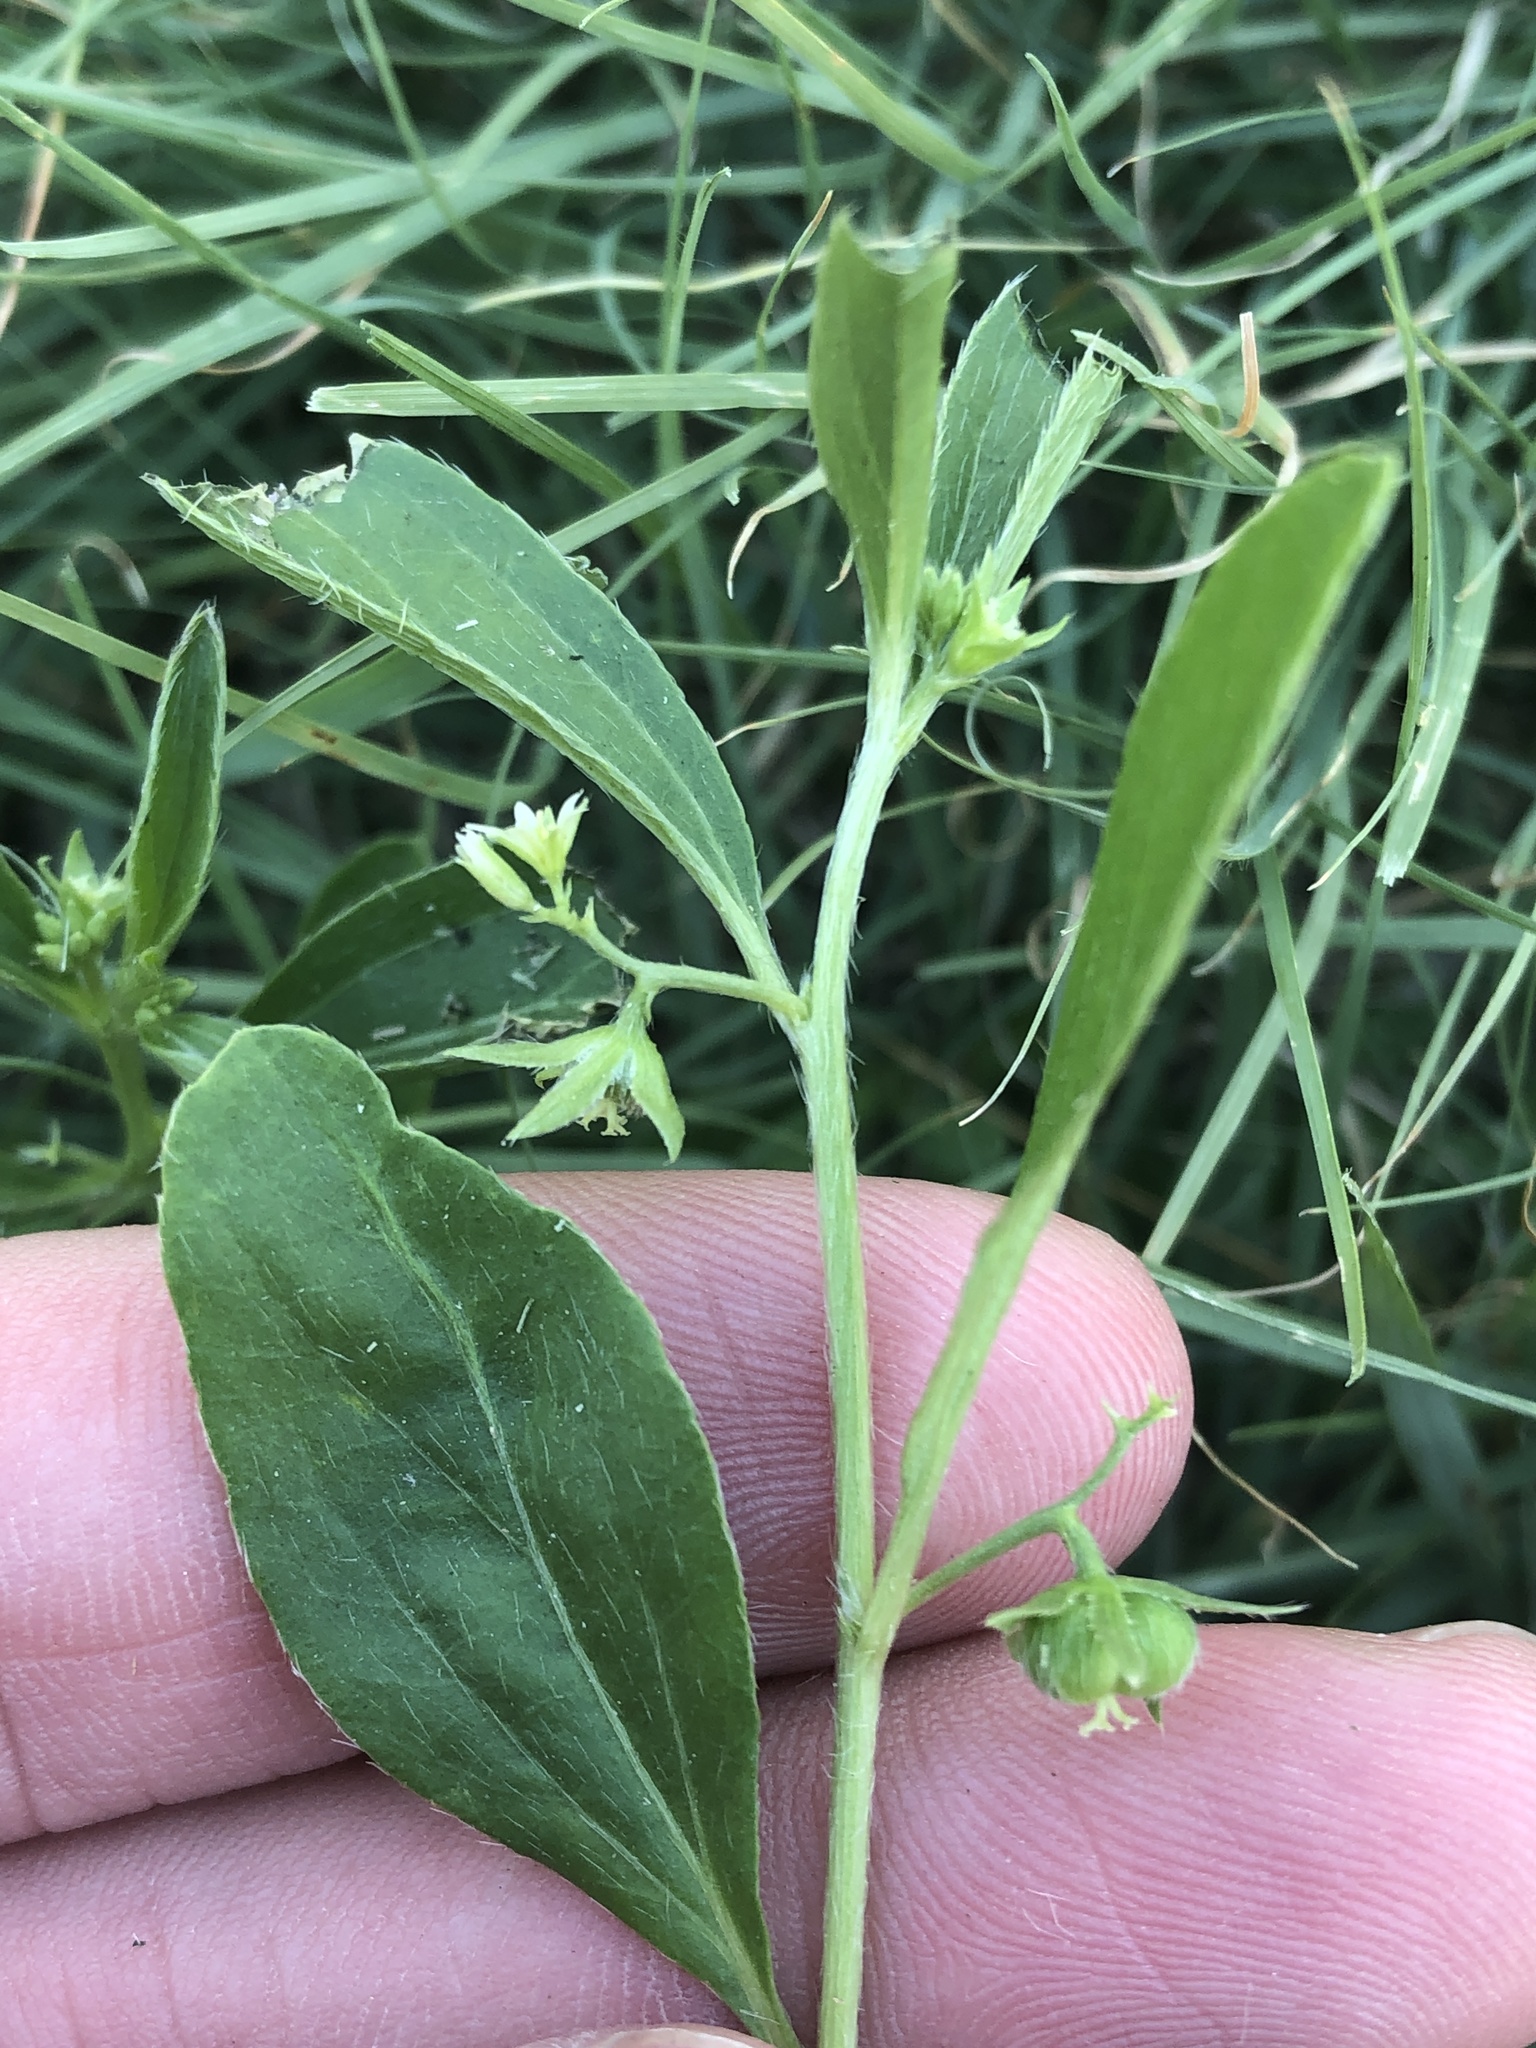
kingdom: Plantae
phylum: Tracheophyta
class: Magnoliopsida
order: Malpighiales
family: Euphorbiaceae
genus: Ditaxis
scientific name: Ditaxis humilis
